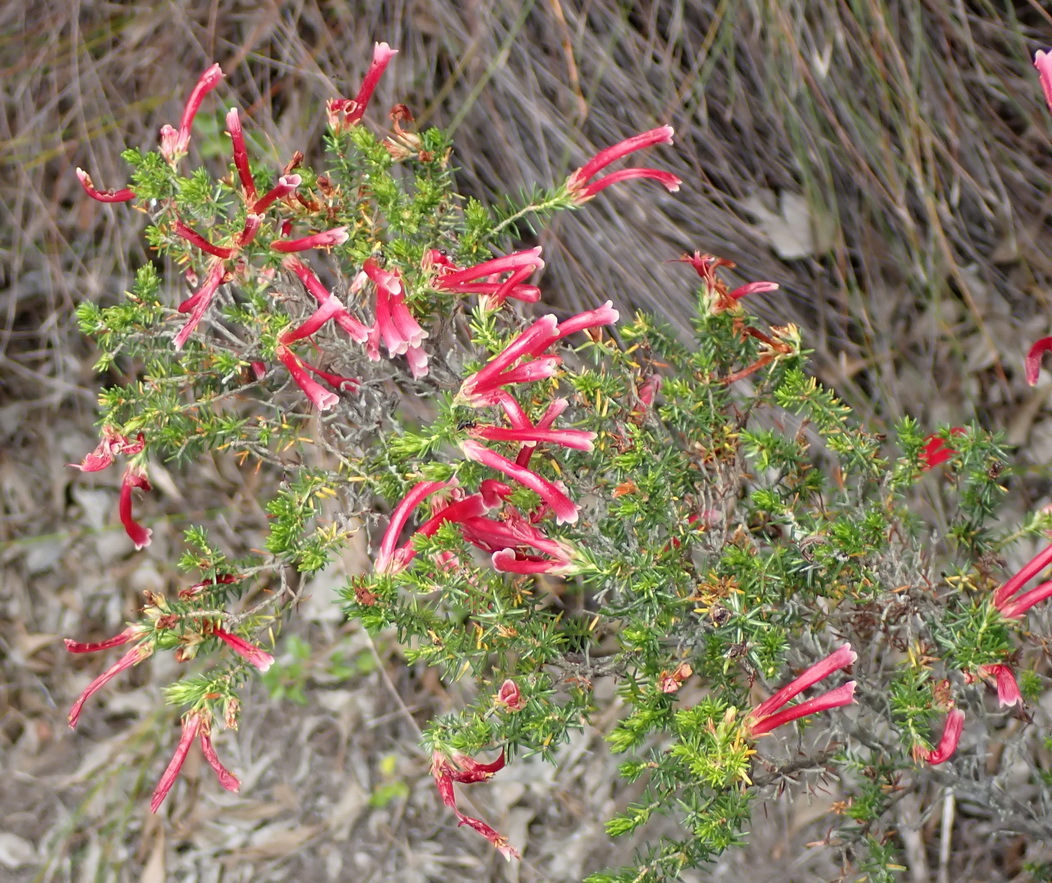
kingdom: Plantae
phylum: Tracheophyta
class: Magnoliopsida
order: Ericales
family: Ericaceae
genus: Erica
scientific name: Erica discolor
